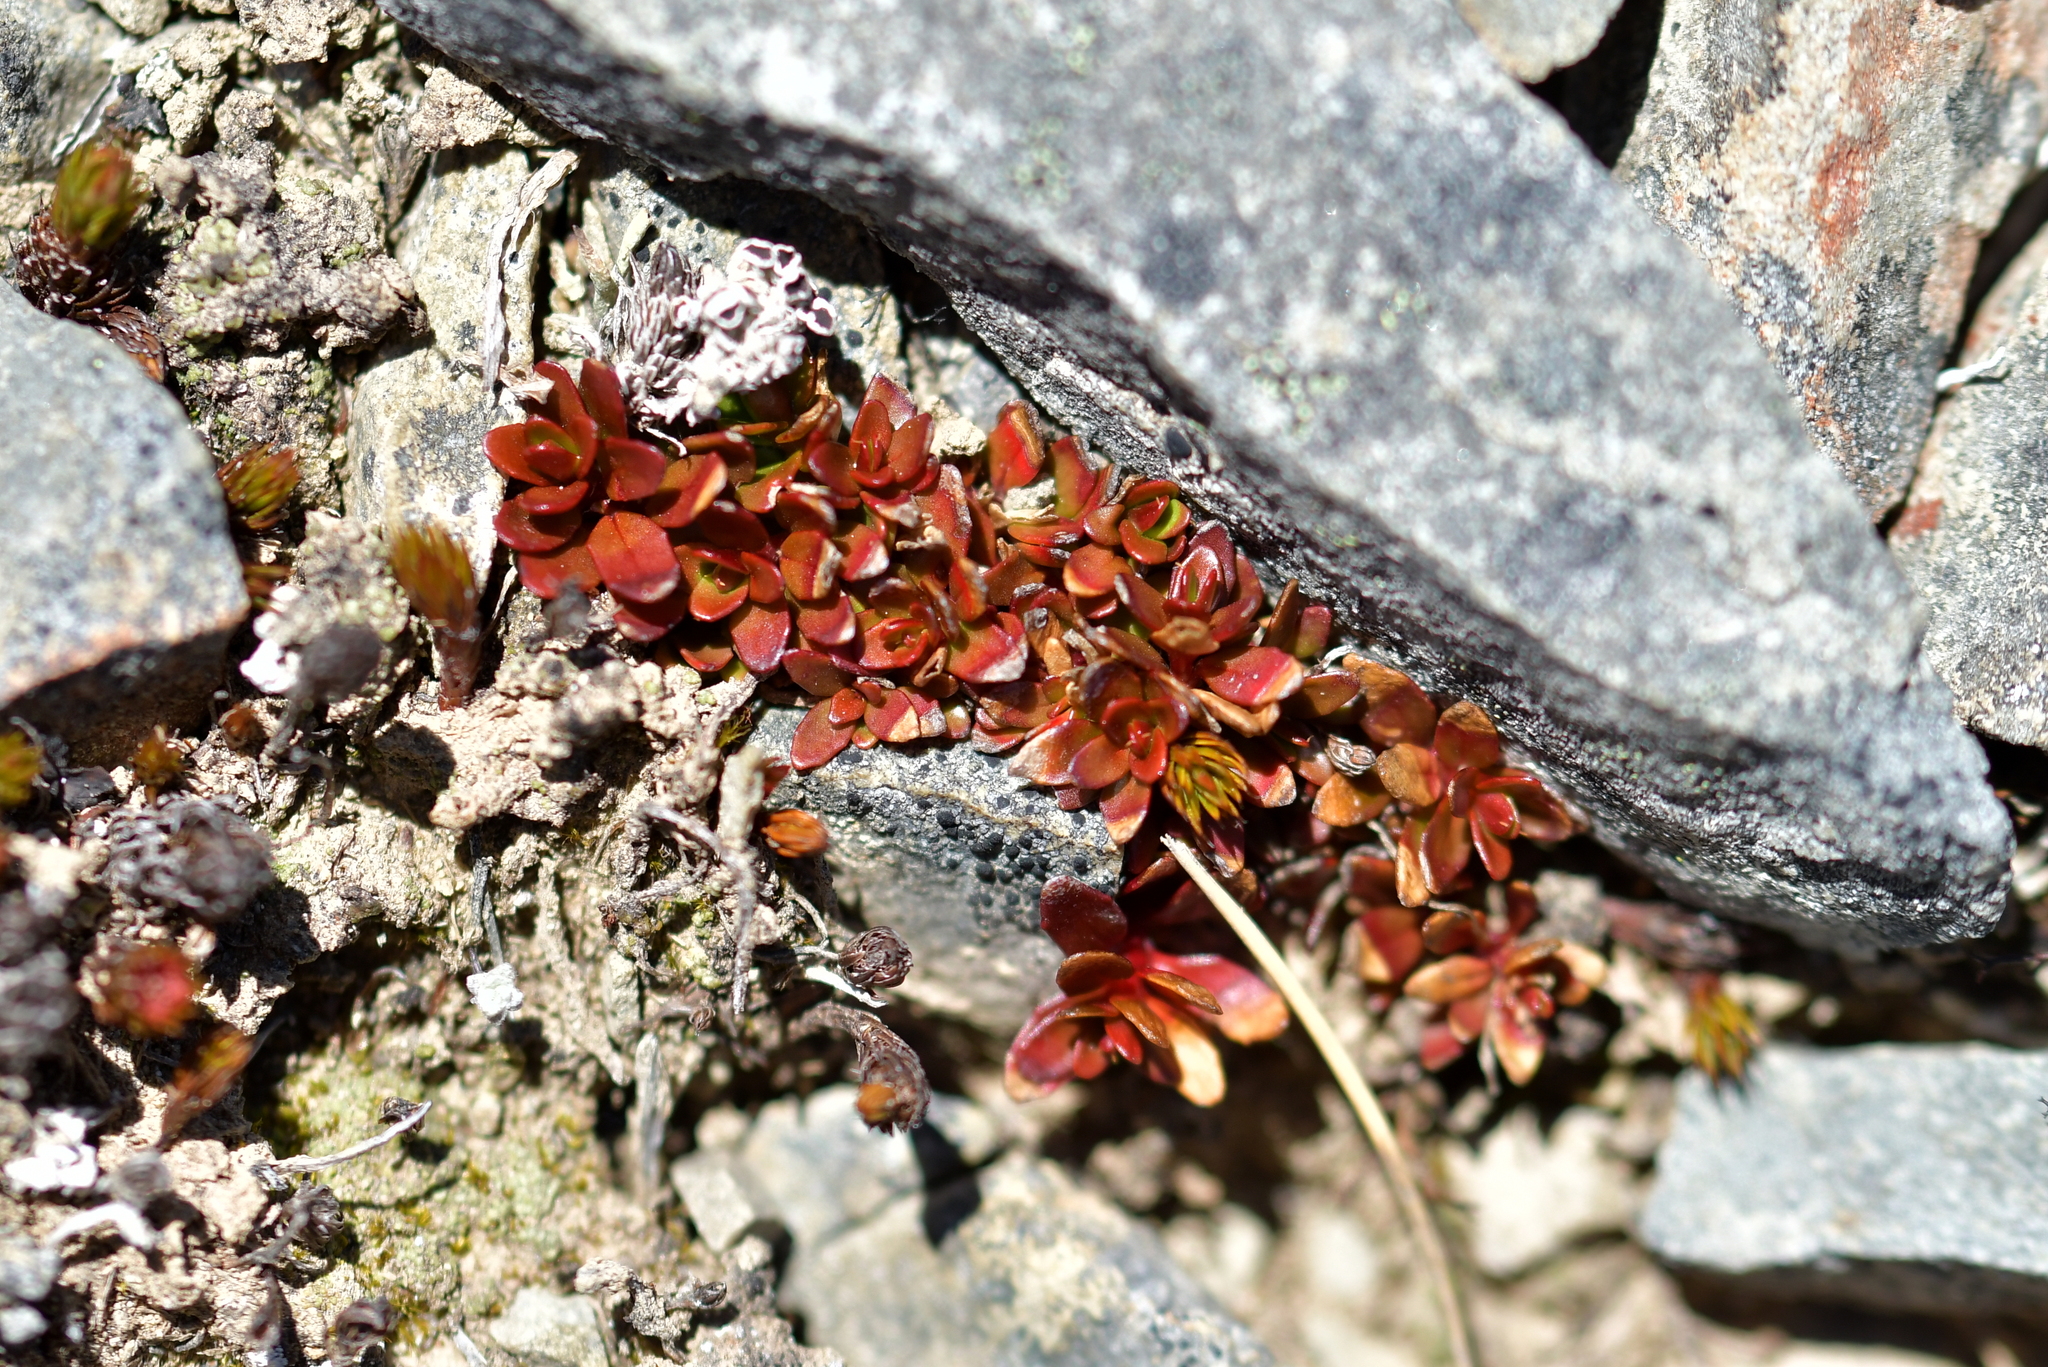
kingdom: Plantae
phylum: Tracheophyta
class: Magnoliopsida
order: Myrtales
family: Onagraceae
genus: Epilobium
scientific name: Epilobium tasmanicum
